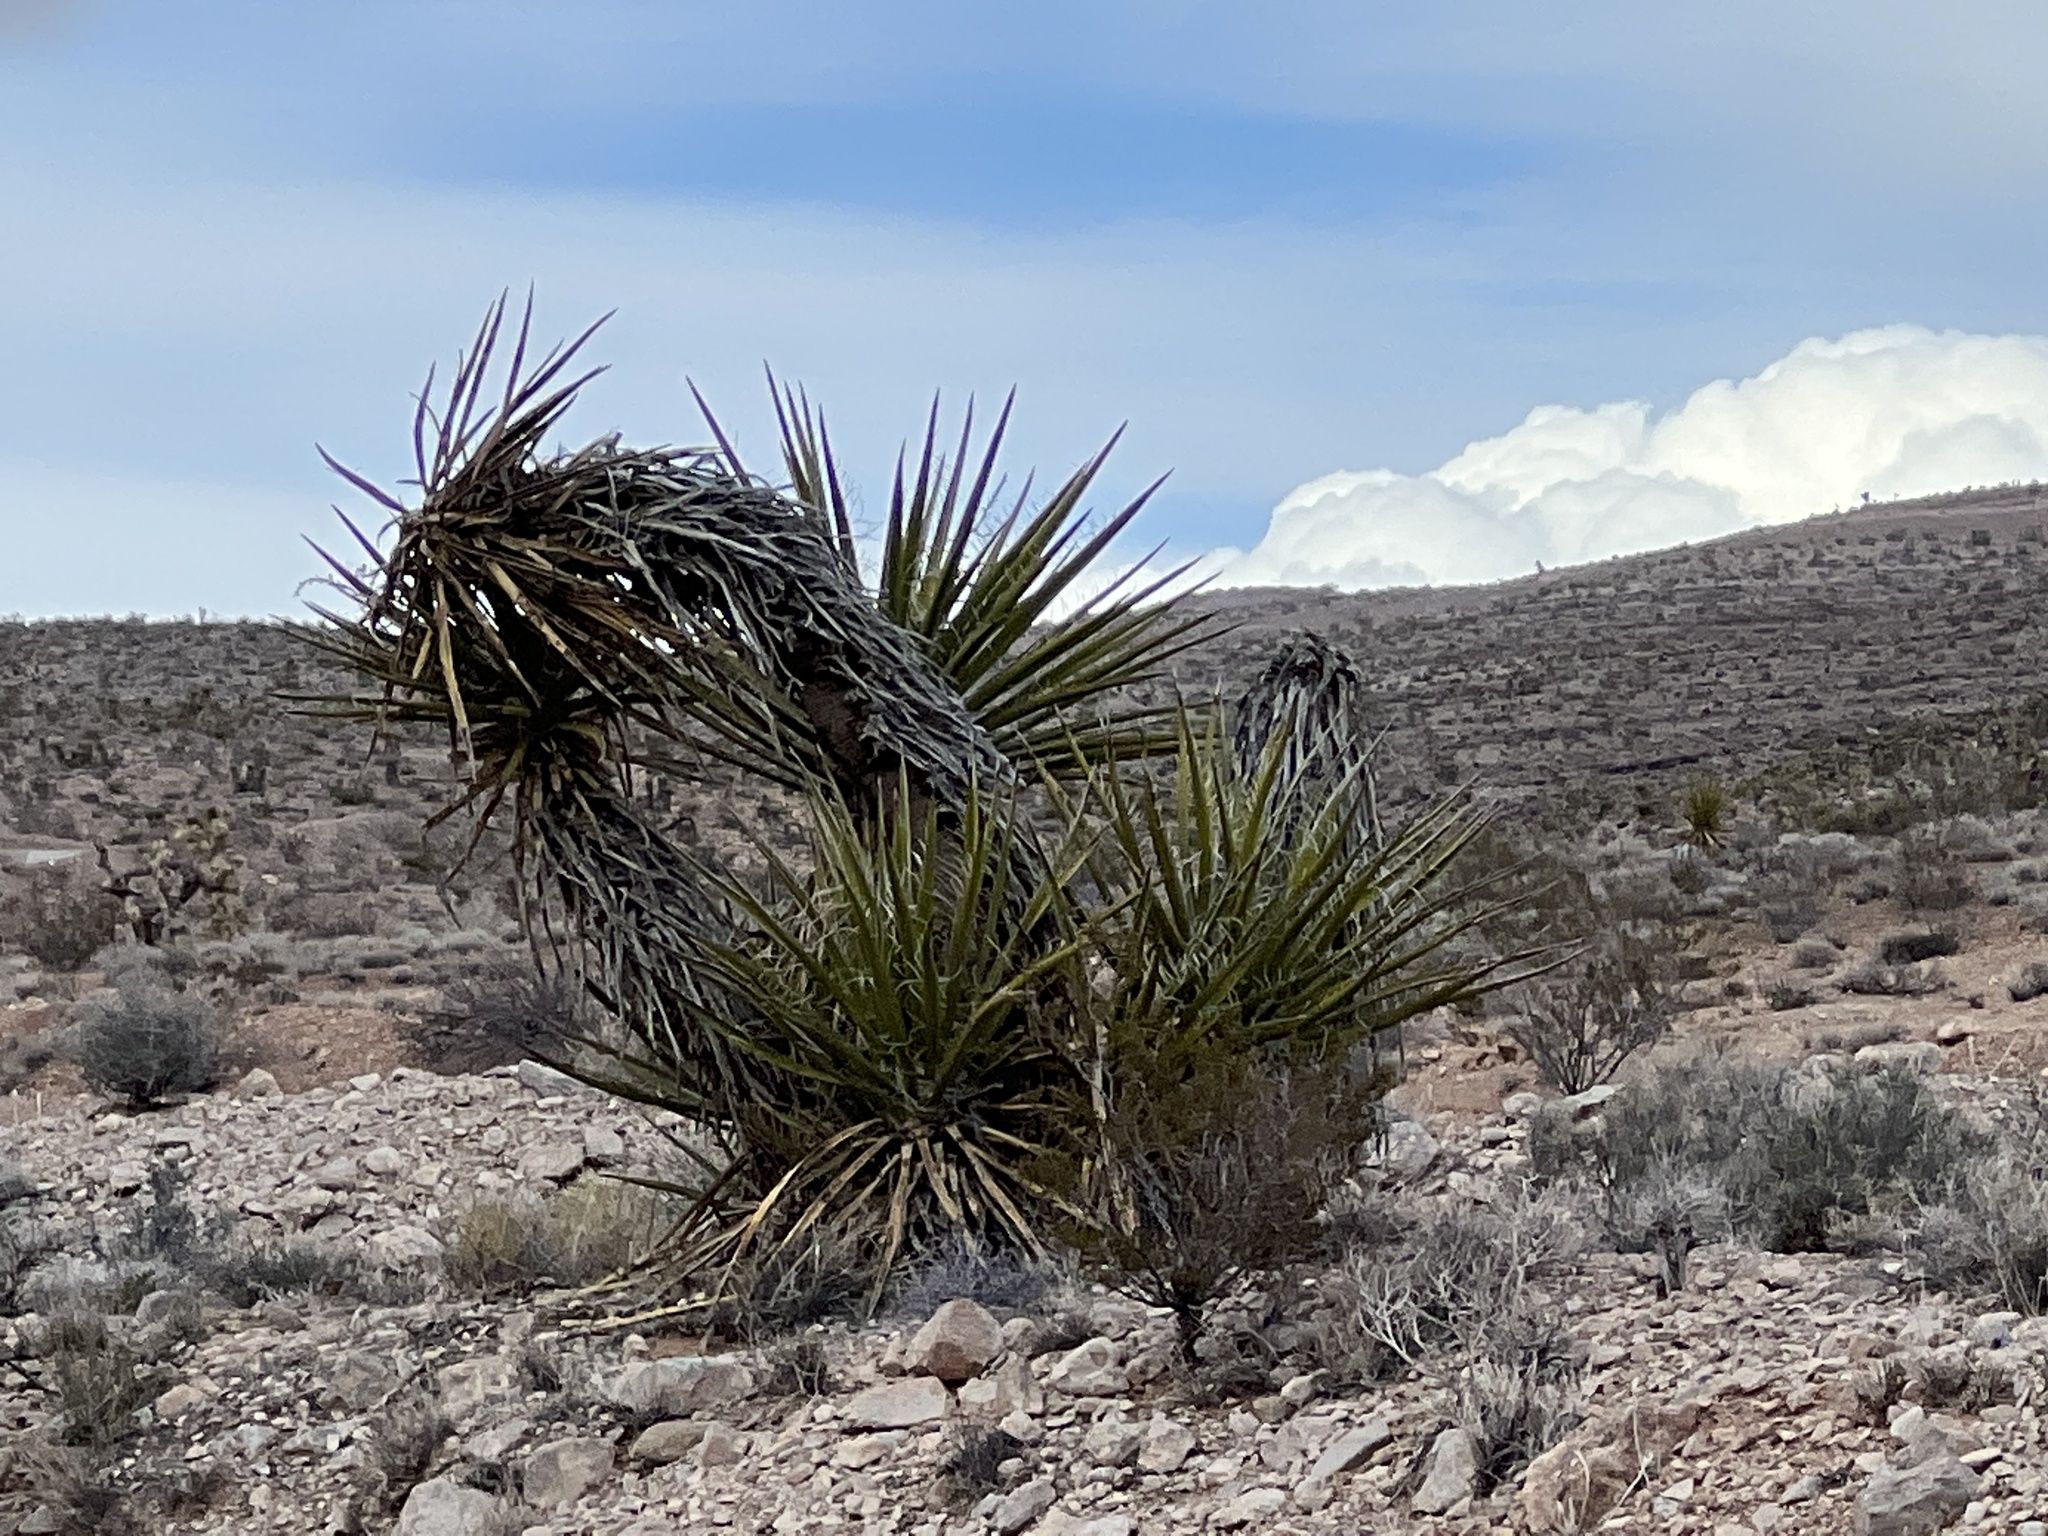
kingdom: Plantae
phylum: Tracheophyta
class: Liliopsida
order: Asparagales
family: Asparagaceae
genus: Yucca
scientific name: Yucca schidigera
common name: Mojave yucca
